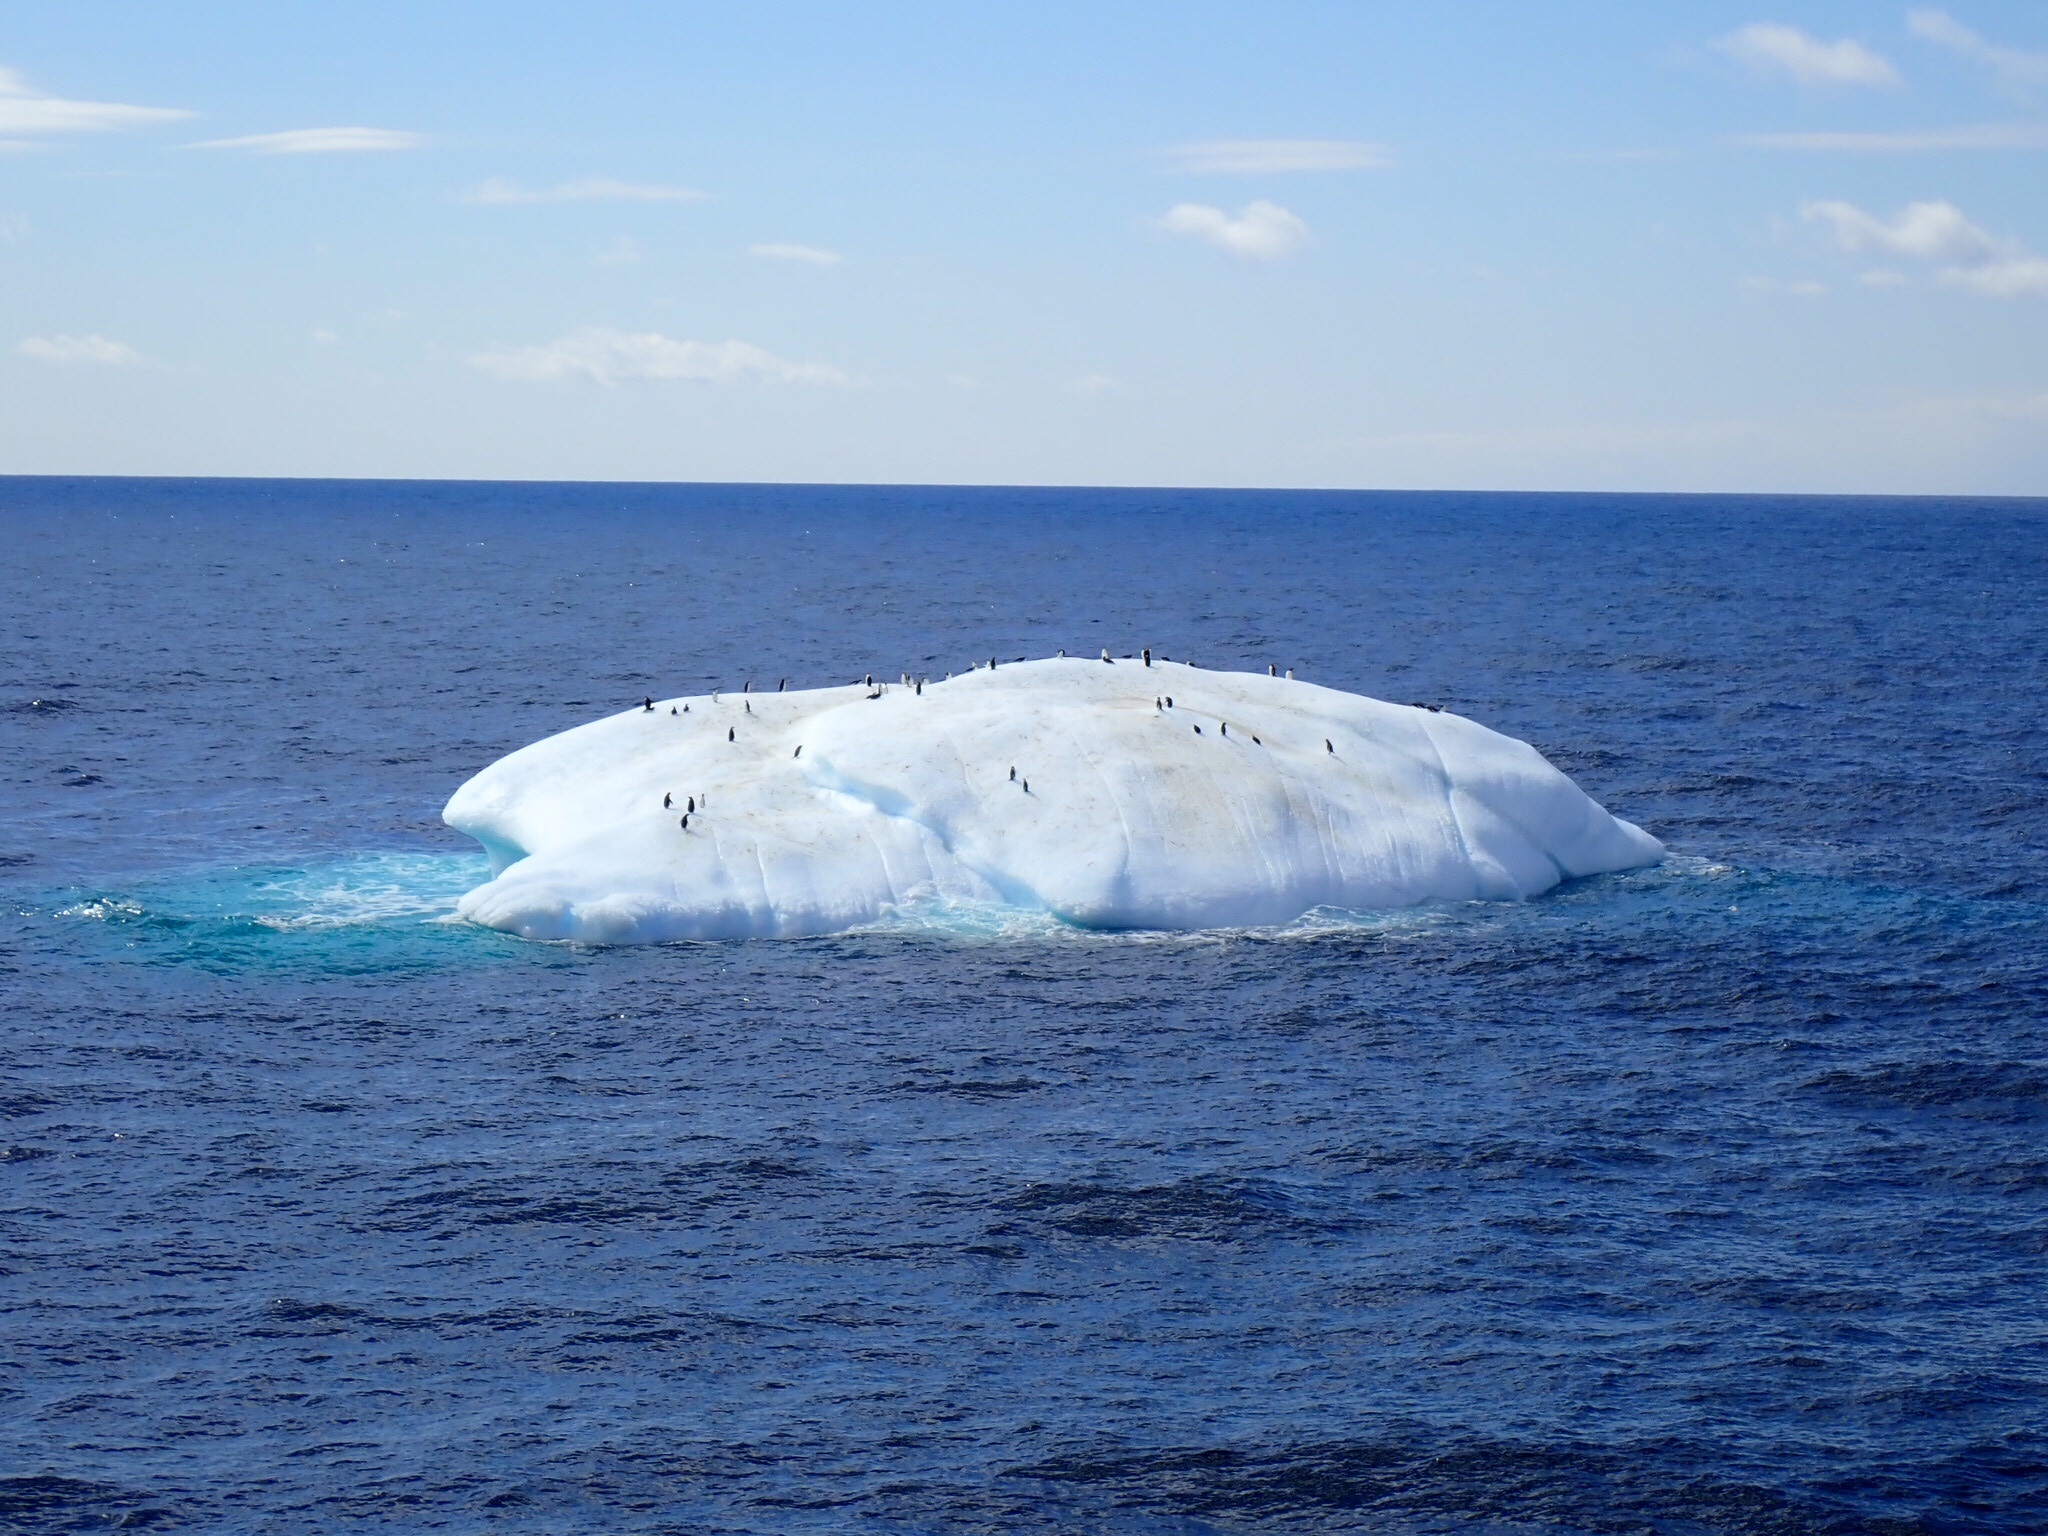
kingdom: Animalia
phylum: Chordata
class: Aves
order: Sphenisciformes
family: Spheniscidae
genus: Pygoscelis
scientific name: Pygoscelis adeliae
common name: Adelie penguin
